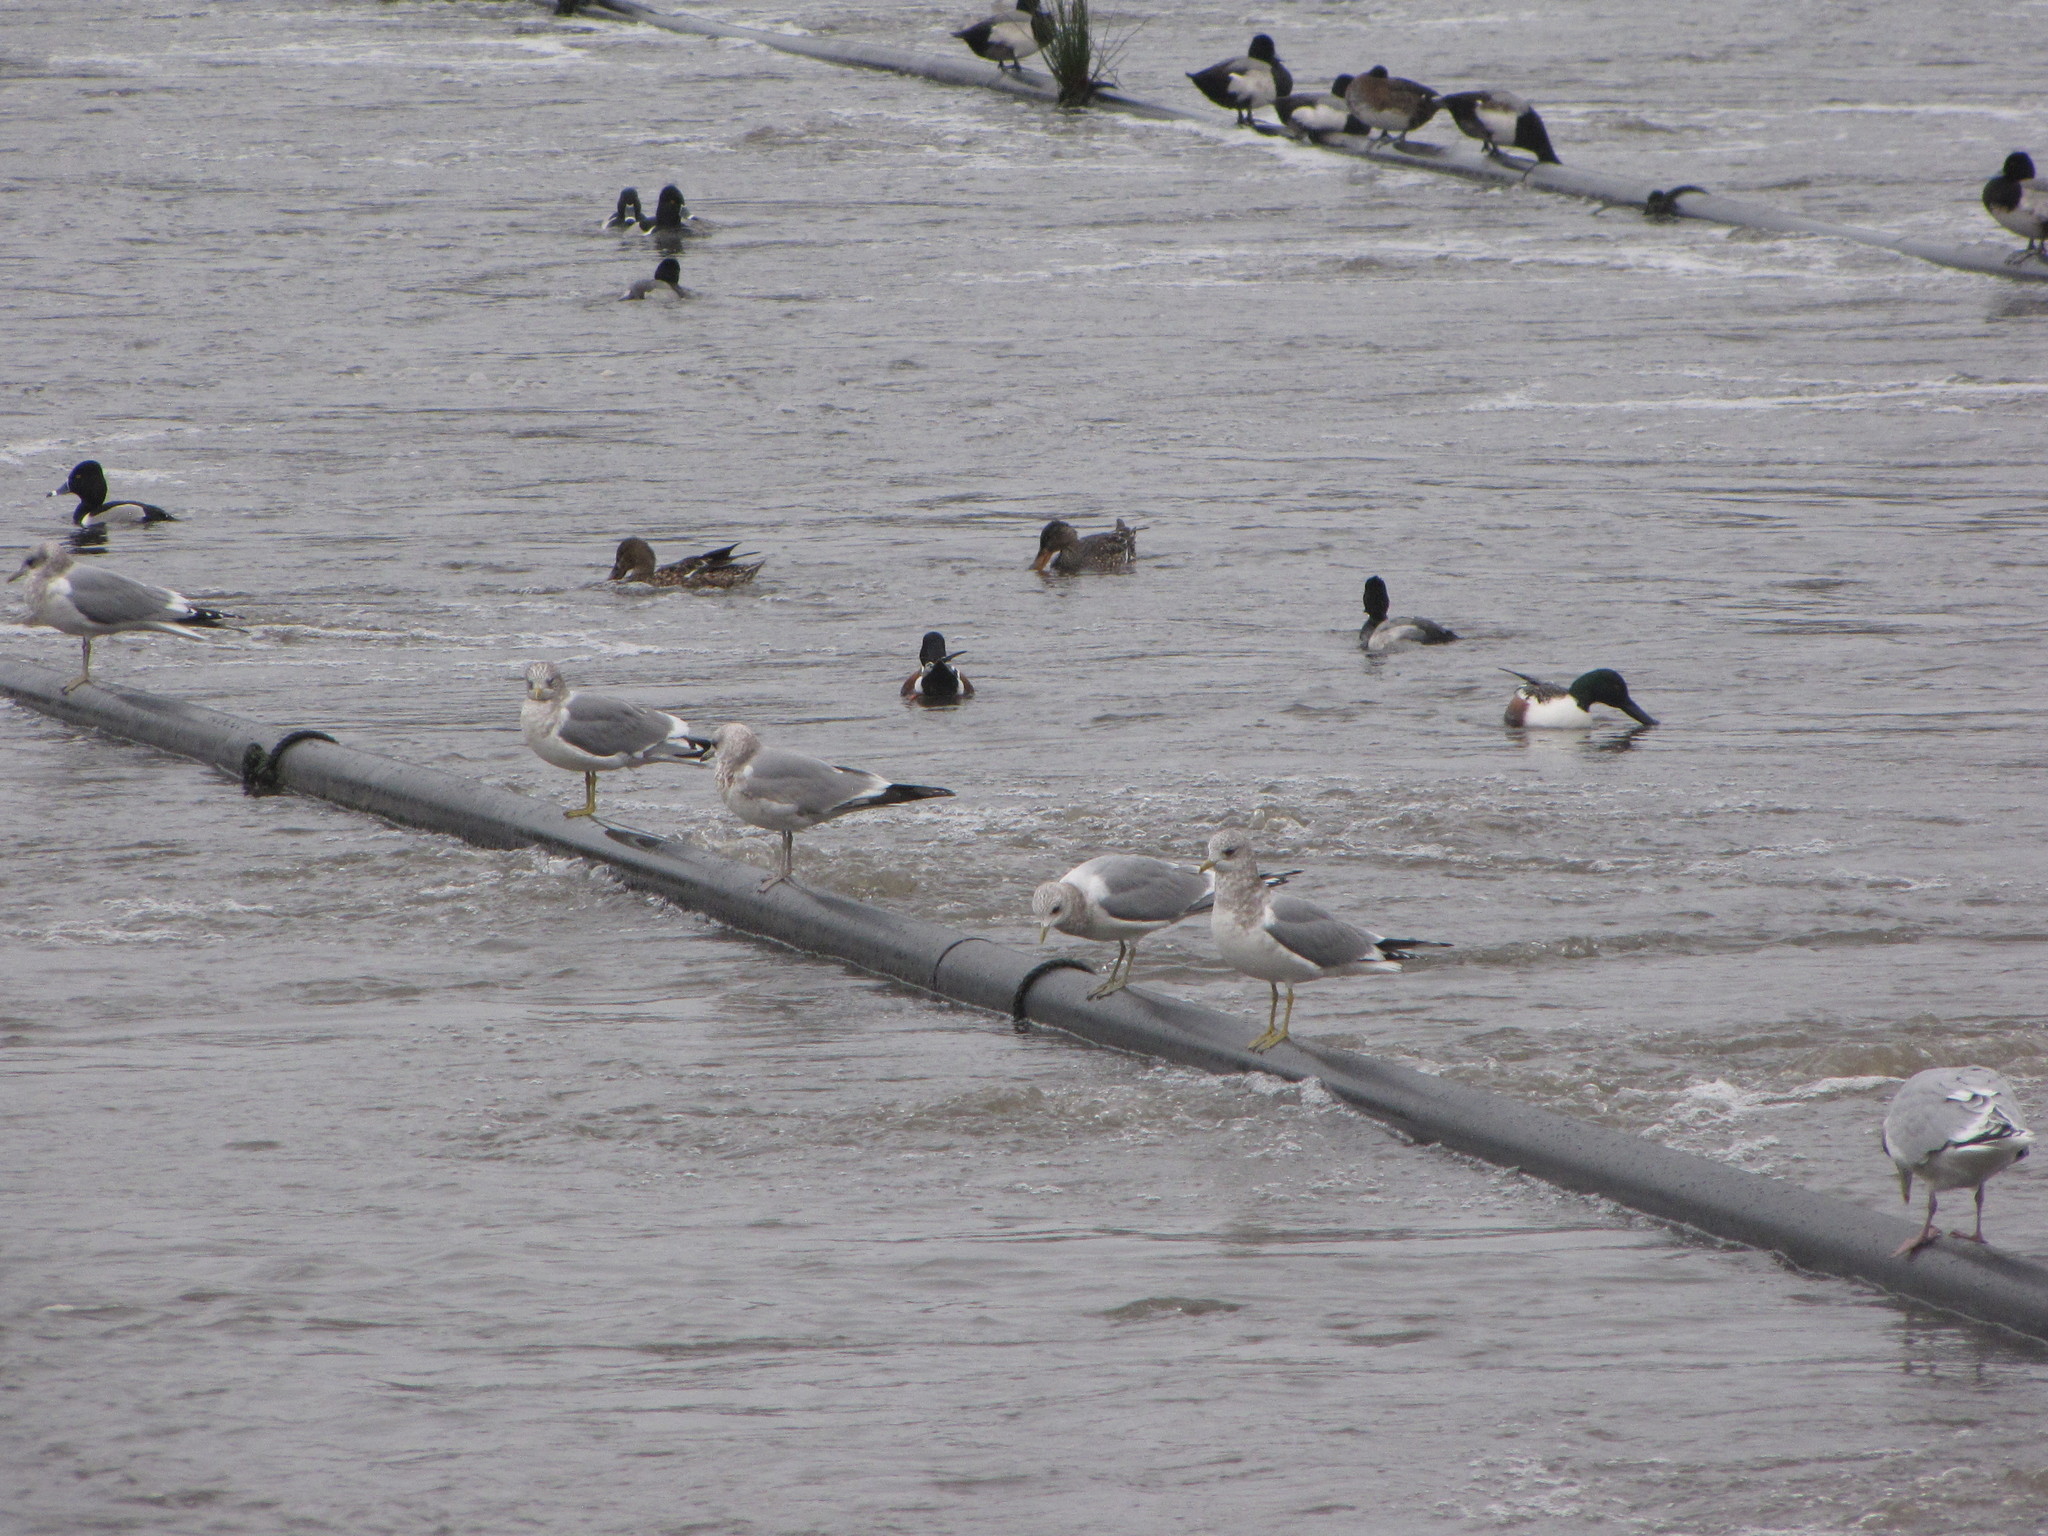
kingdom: Animalia
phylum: Chordata
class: Aves
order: Charadriiformes
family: Laridae
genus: Larus
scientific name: Larus brachyrhynchus
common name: Short-billed gull
